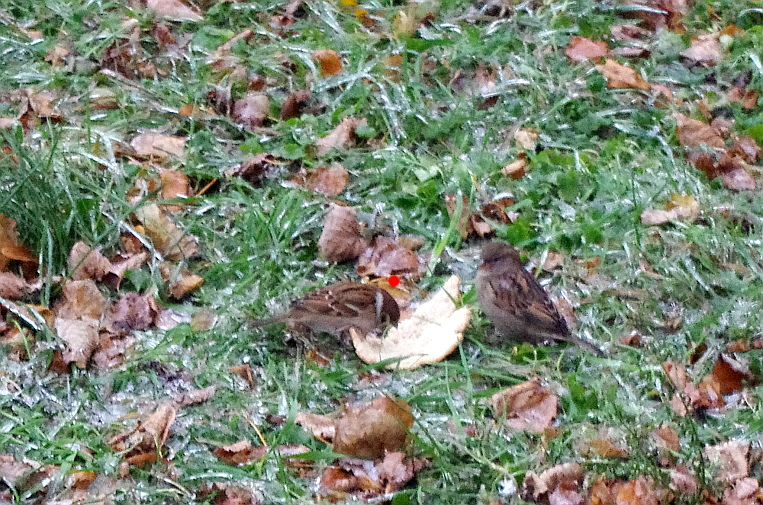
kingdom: Animalia
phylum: Chordata
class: Aves
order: Passeriformes
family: Passeridae
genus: Passer
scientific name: Passer montanus
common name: Eurasian tree sparrow
